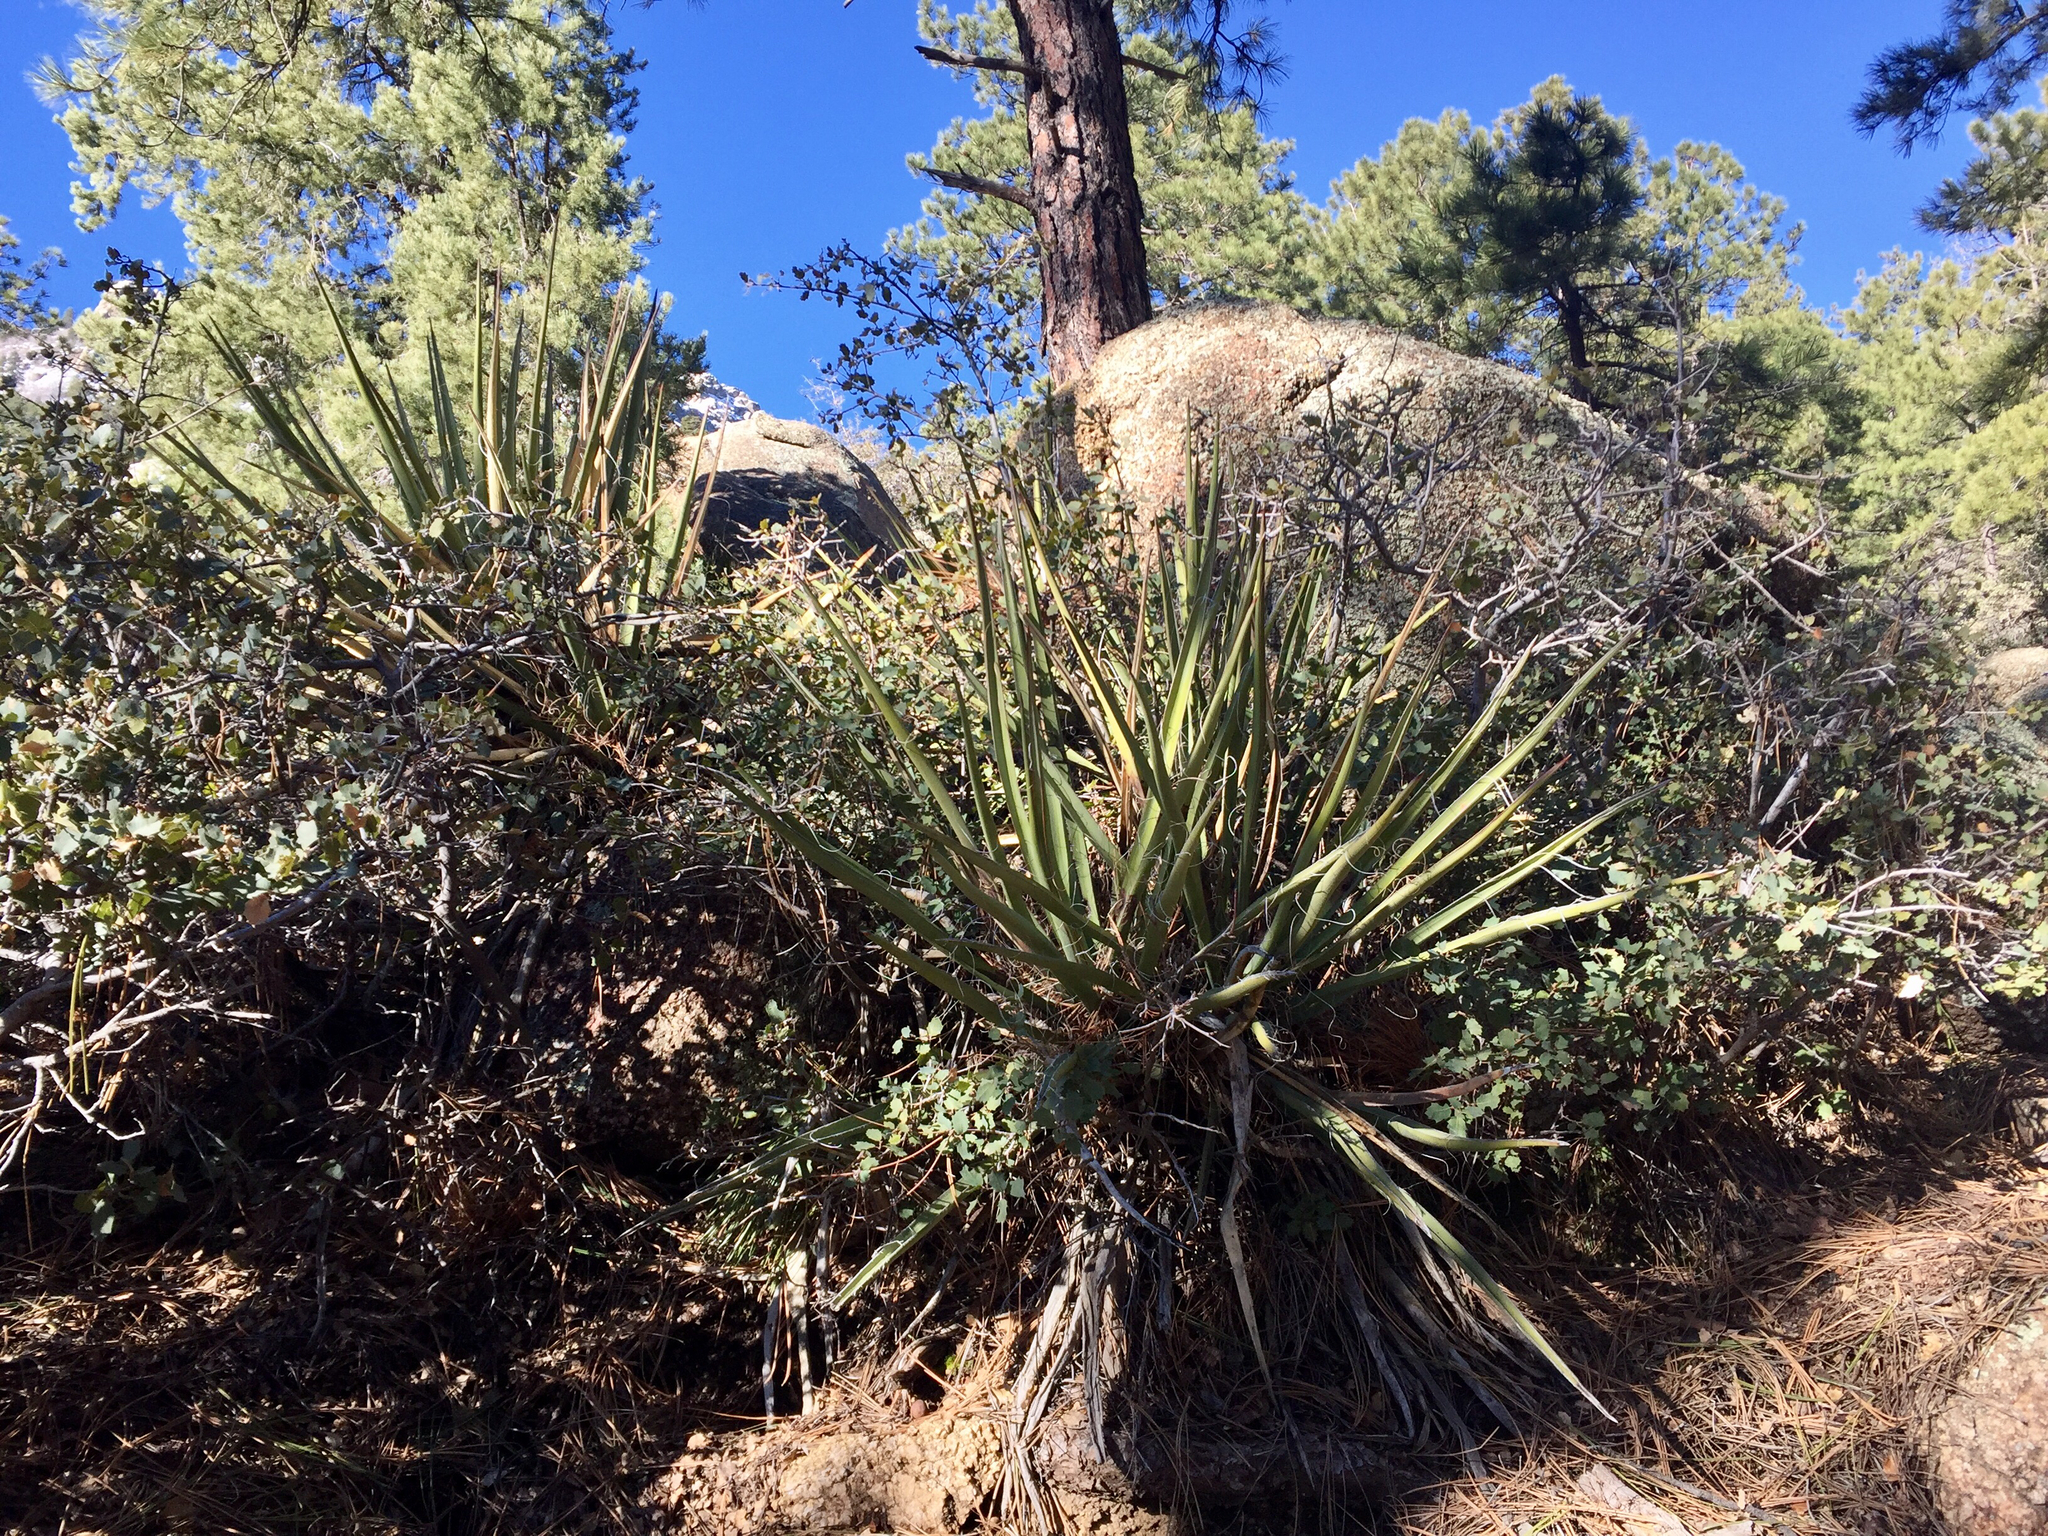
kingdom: Plantae
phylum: Tracheophyta
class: Liliopsida
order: Asparagales
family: Asparagaceae
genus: Yucca
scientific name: Yucca baccata
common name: Banana yucca
